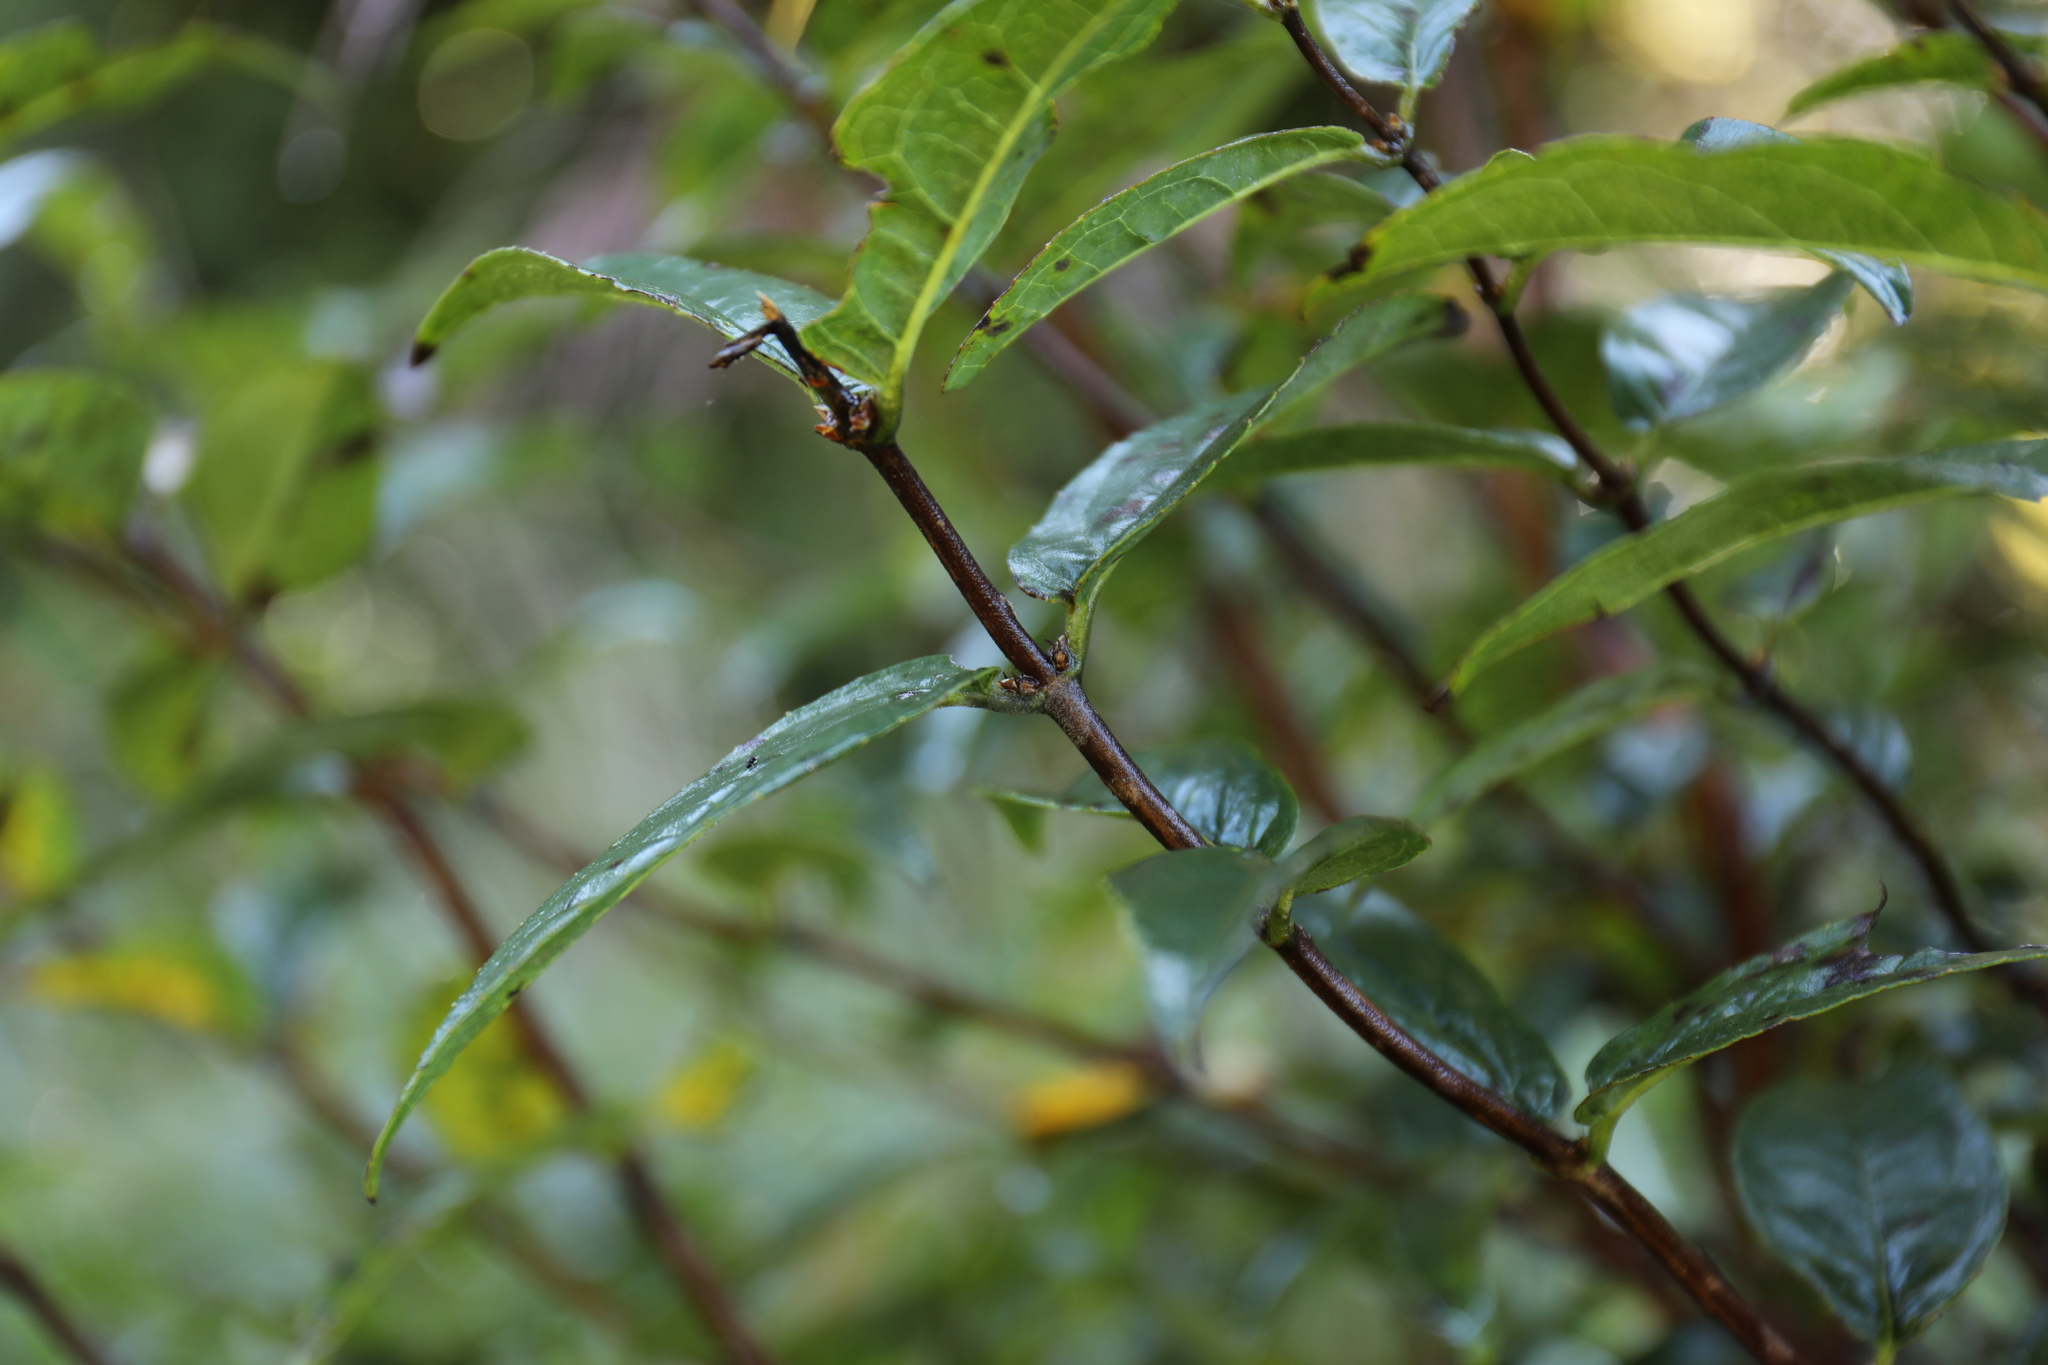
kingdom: Plantae
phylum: Tracheophyta
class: Magnoliopsida
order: Cornales
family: Hydrangeaceae
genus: Deutzia
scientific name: Deutzia pulchra
